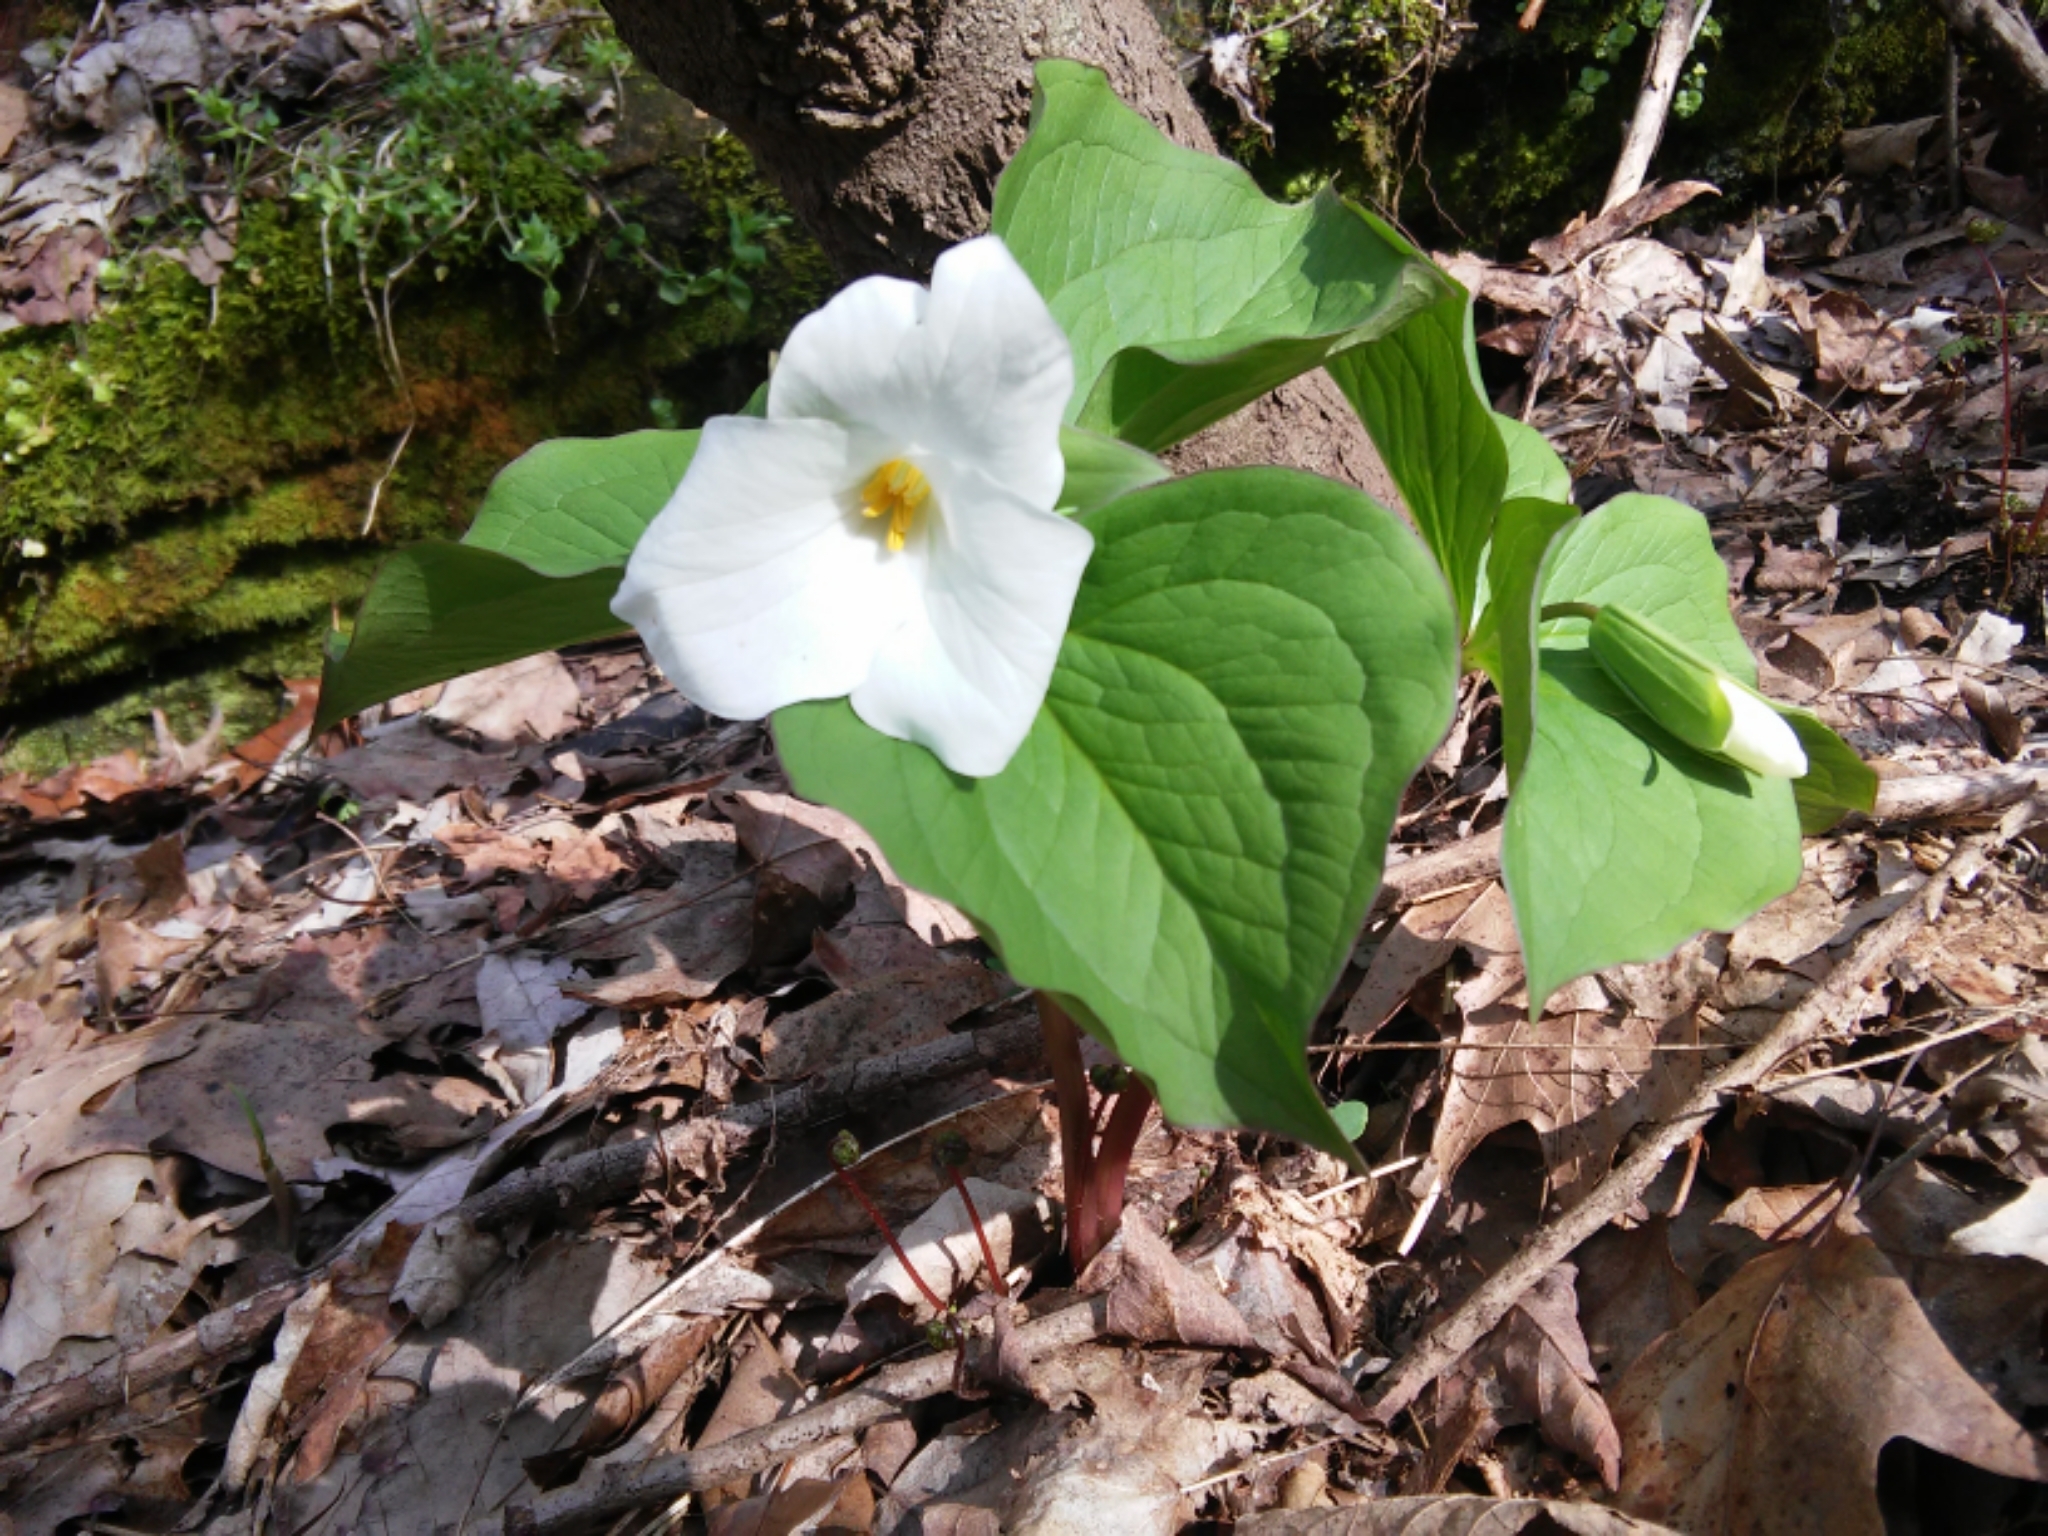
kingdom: Plantae
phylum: Tracheophyta
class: Liliopsida
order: Liliales
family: Melanthiaceae
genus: Trillium
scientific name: Trillium grandiflorum
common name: Great white trillium
